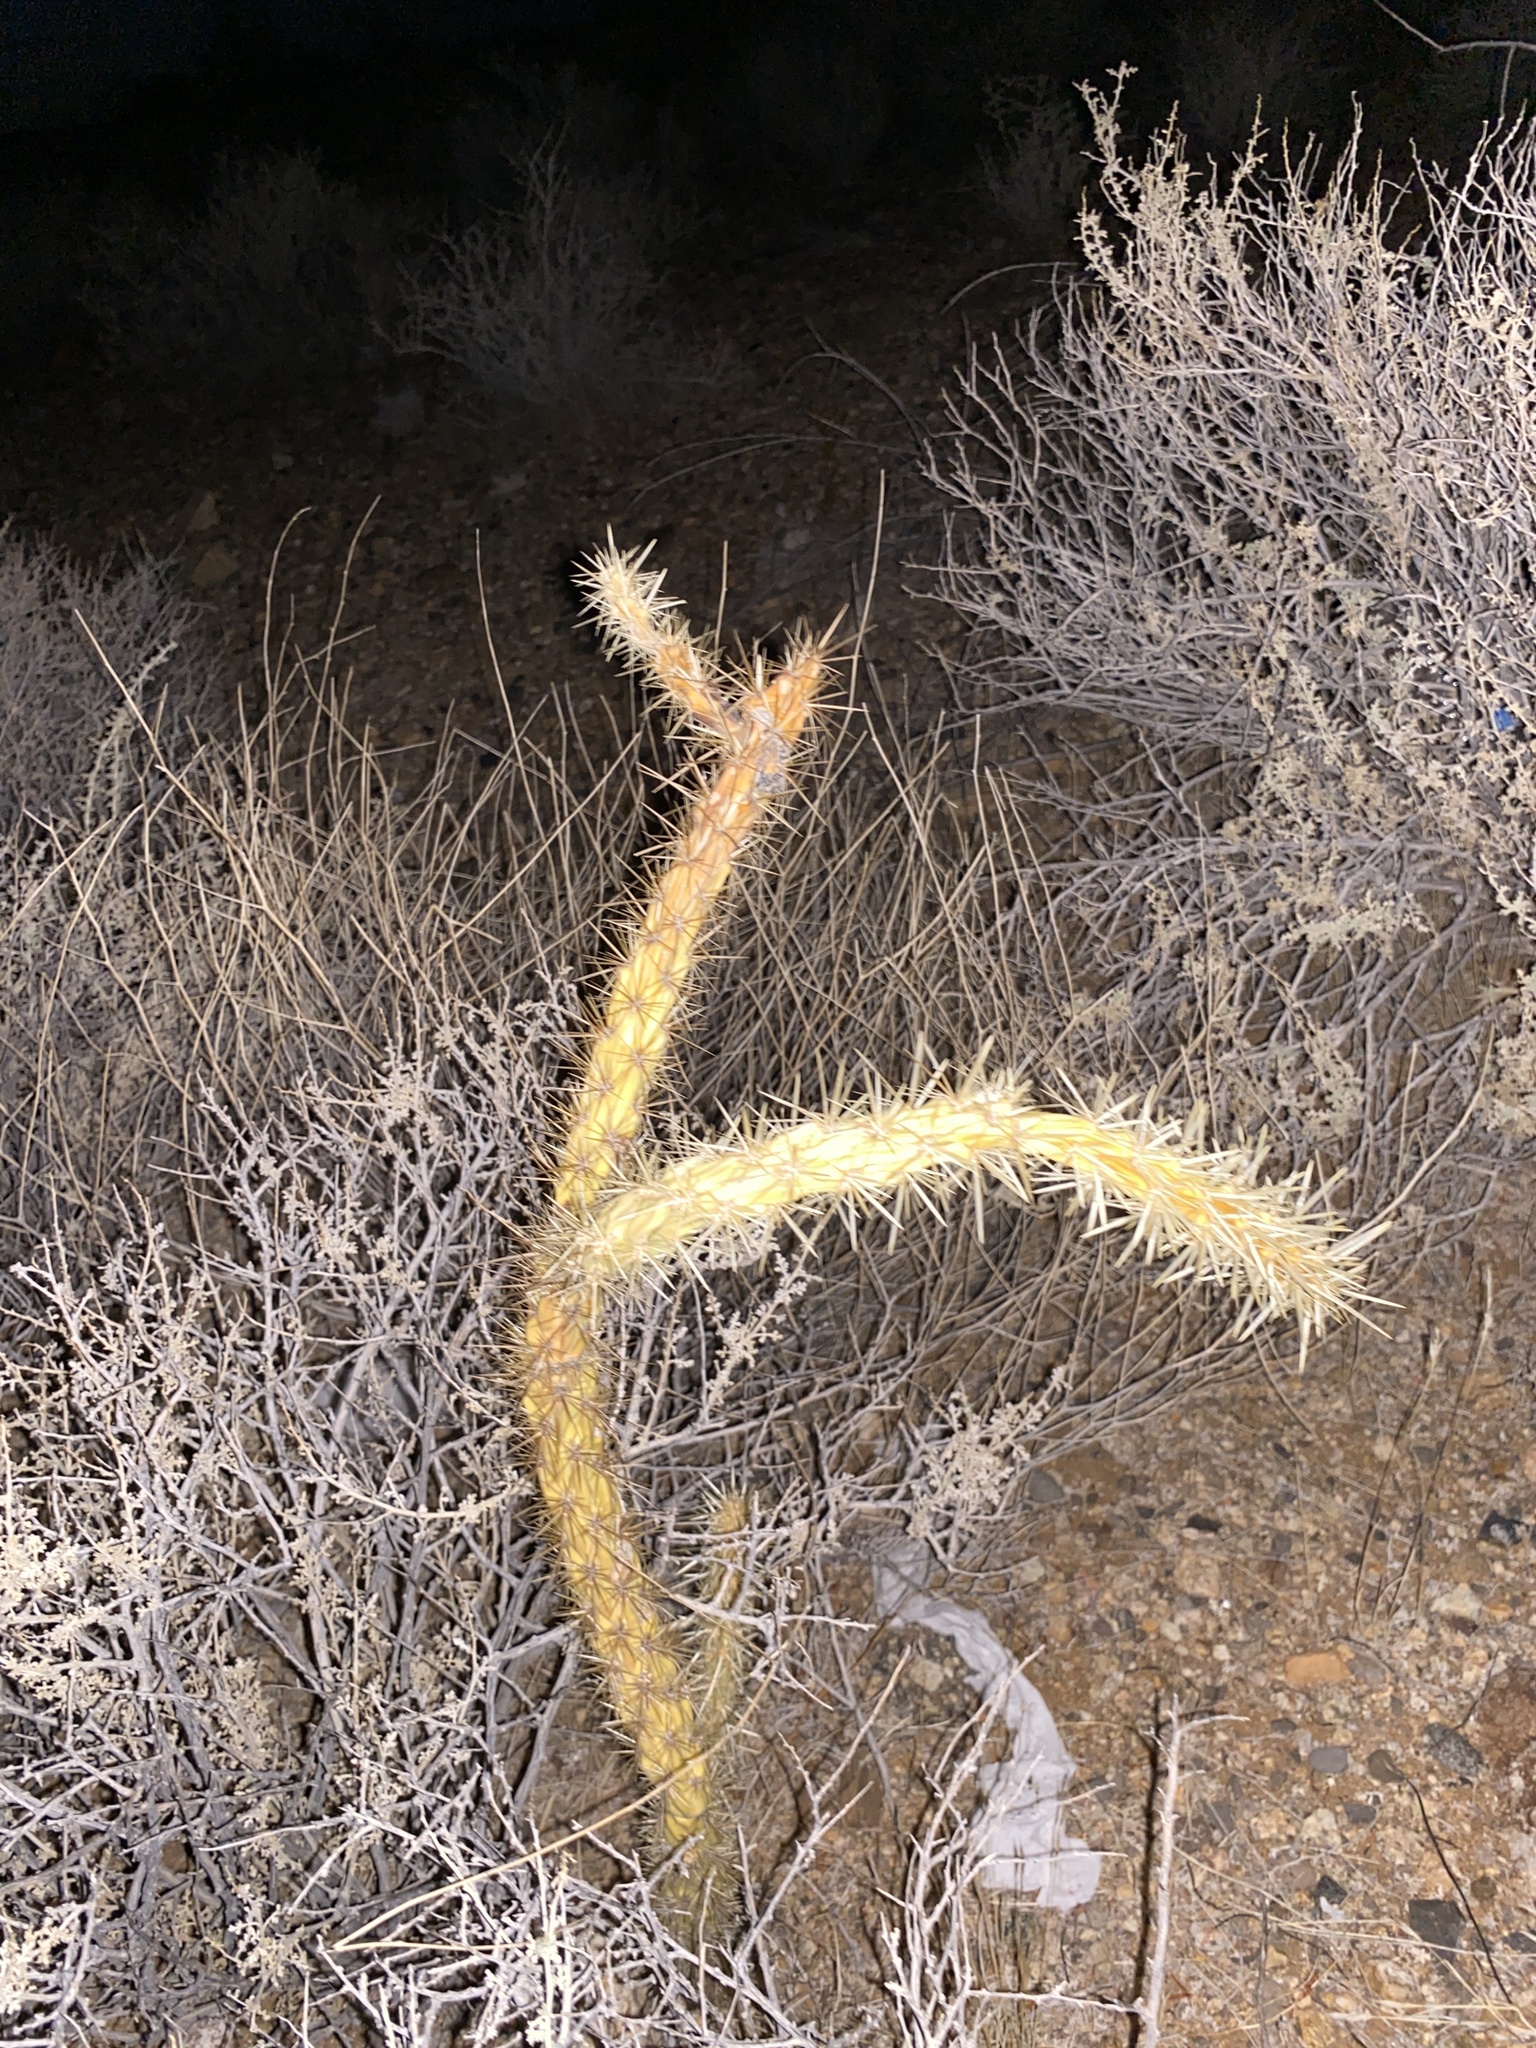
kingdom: Plantae
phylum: Tracheophyta
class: Magnoliopsida
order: Caryophyllales
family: Cactaceae
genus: Cylindropuntia
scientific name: Cylindropuntia acanthocarpa
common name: Buckhorn cholla
